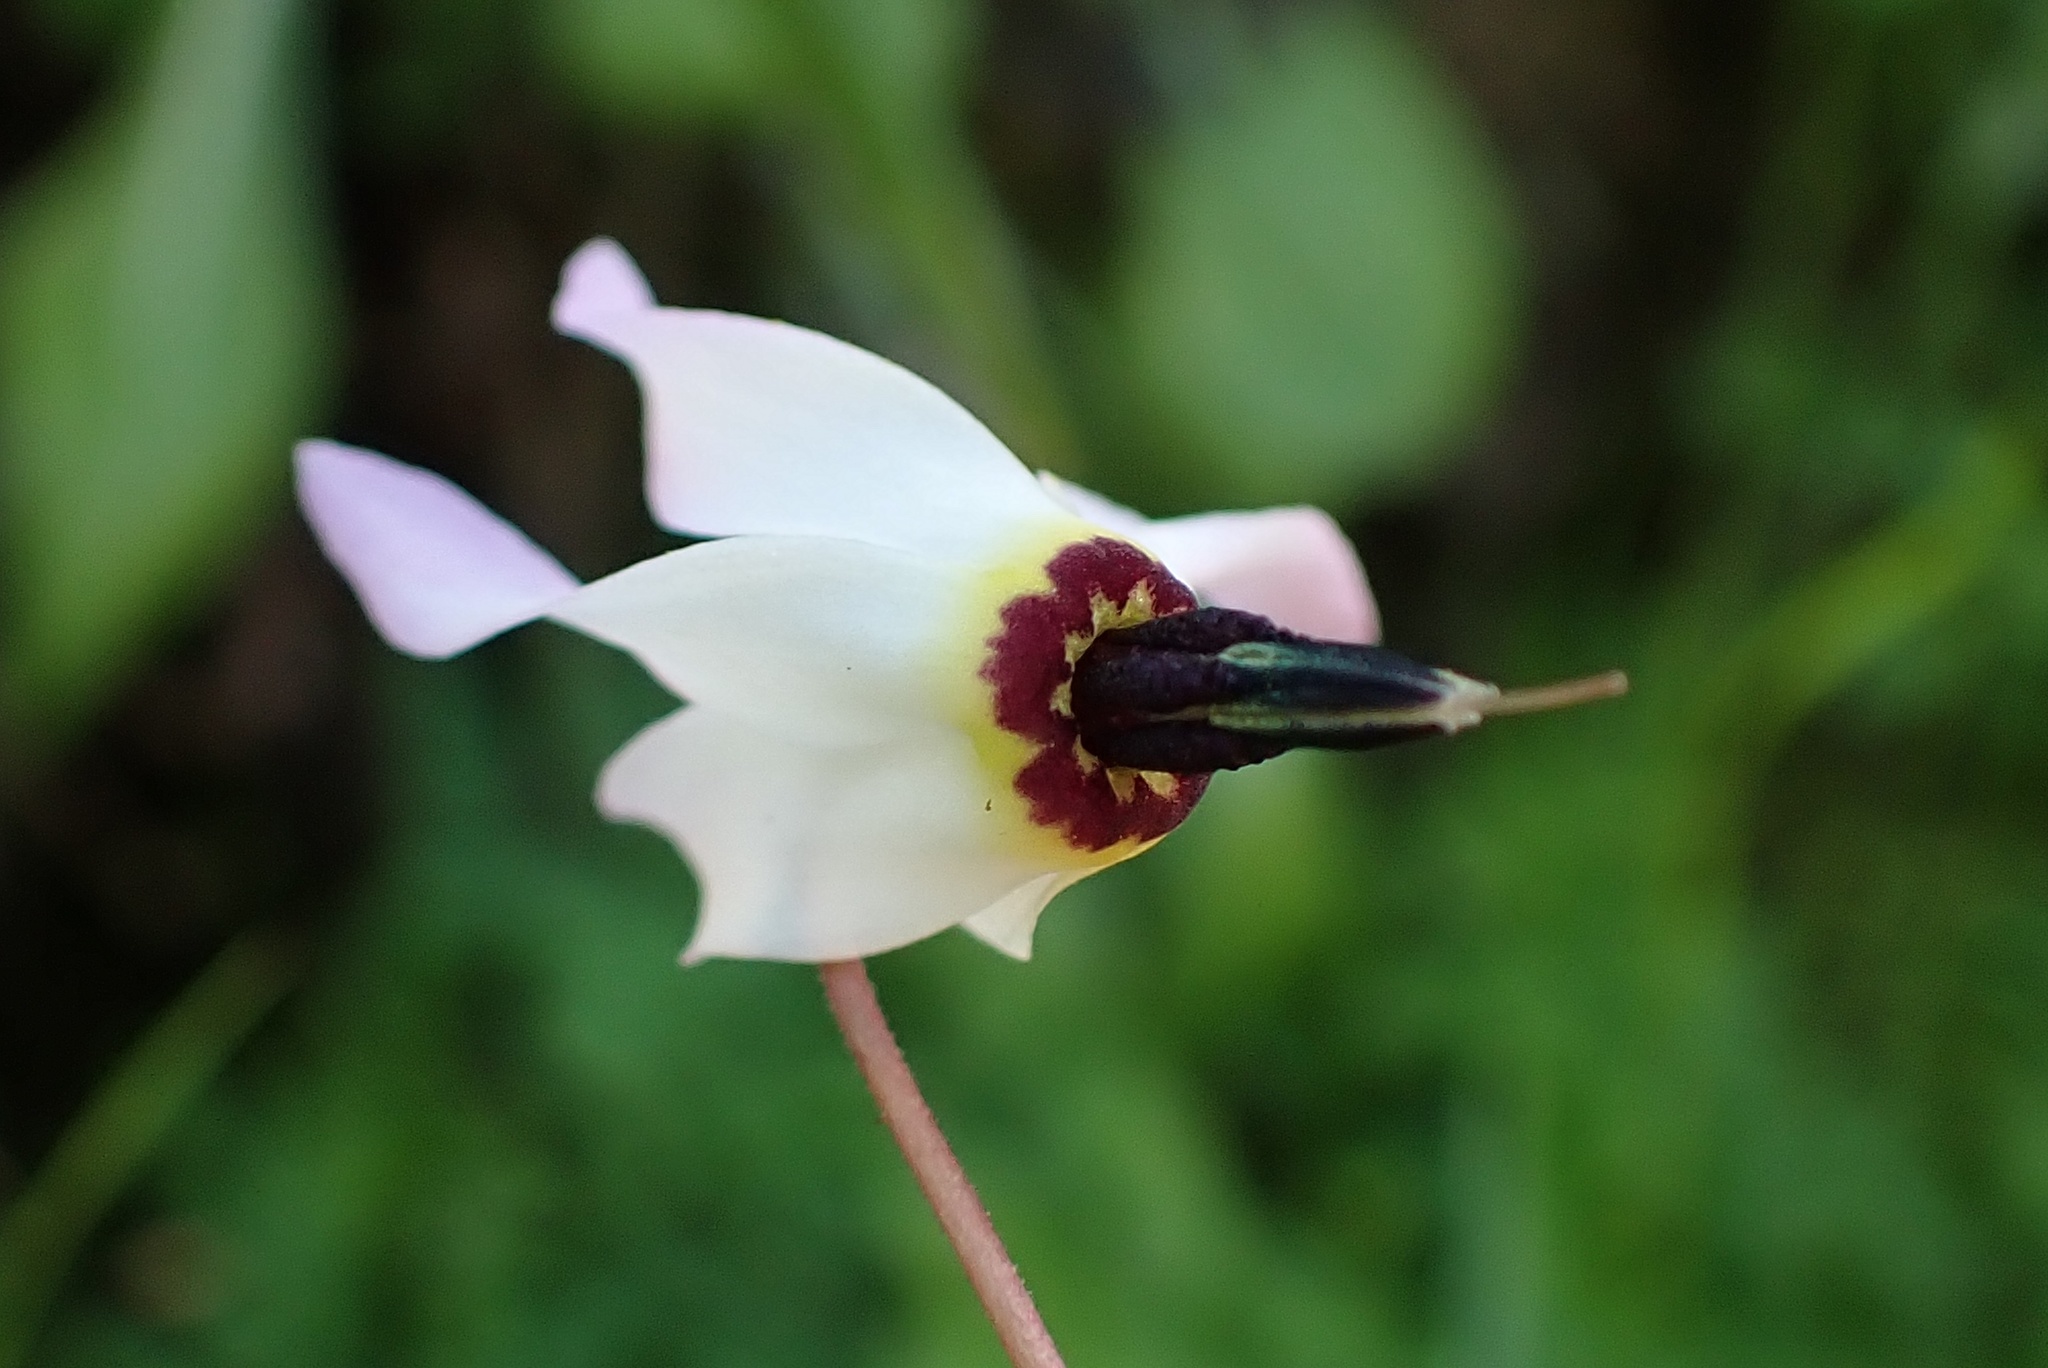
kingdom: Plantae
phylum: Tracheophyta
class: Magnoliopsida
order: Ericales
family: Primulaceae
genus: Dodecatheon
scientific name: Dodecatheon hendersonii
